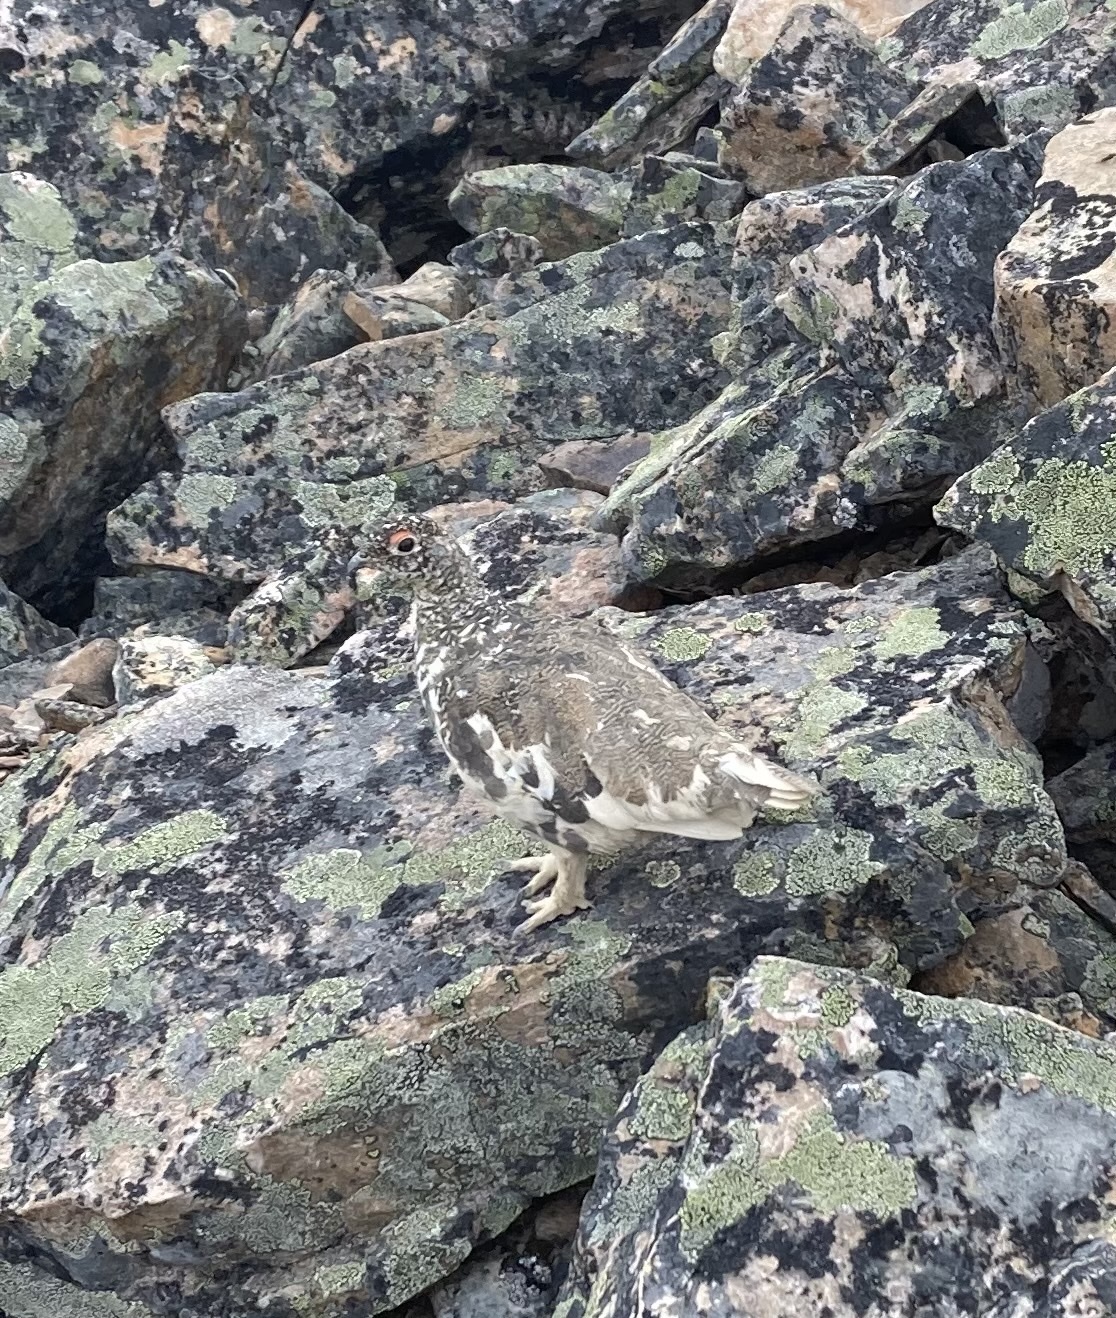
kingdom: Animalia
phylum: Chordata
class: Aves
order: Galliformes
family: Phasianidae
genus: Lagopus
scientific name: Lagopus leucura
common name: White-tailed ptarmigan
